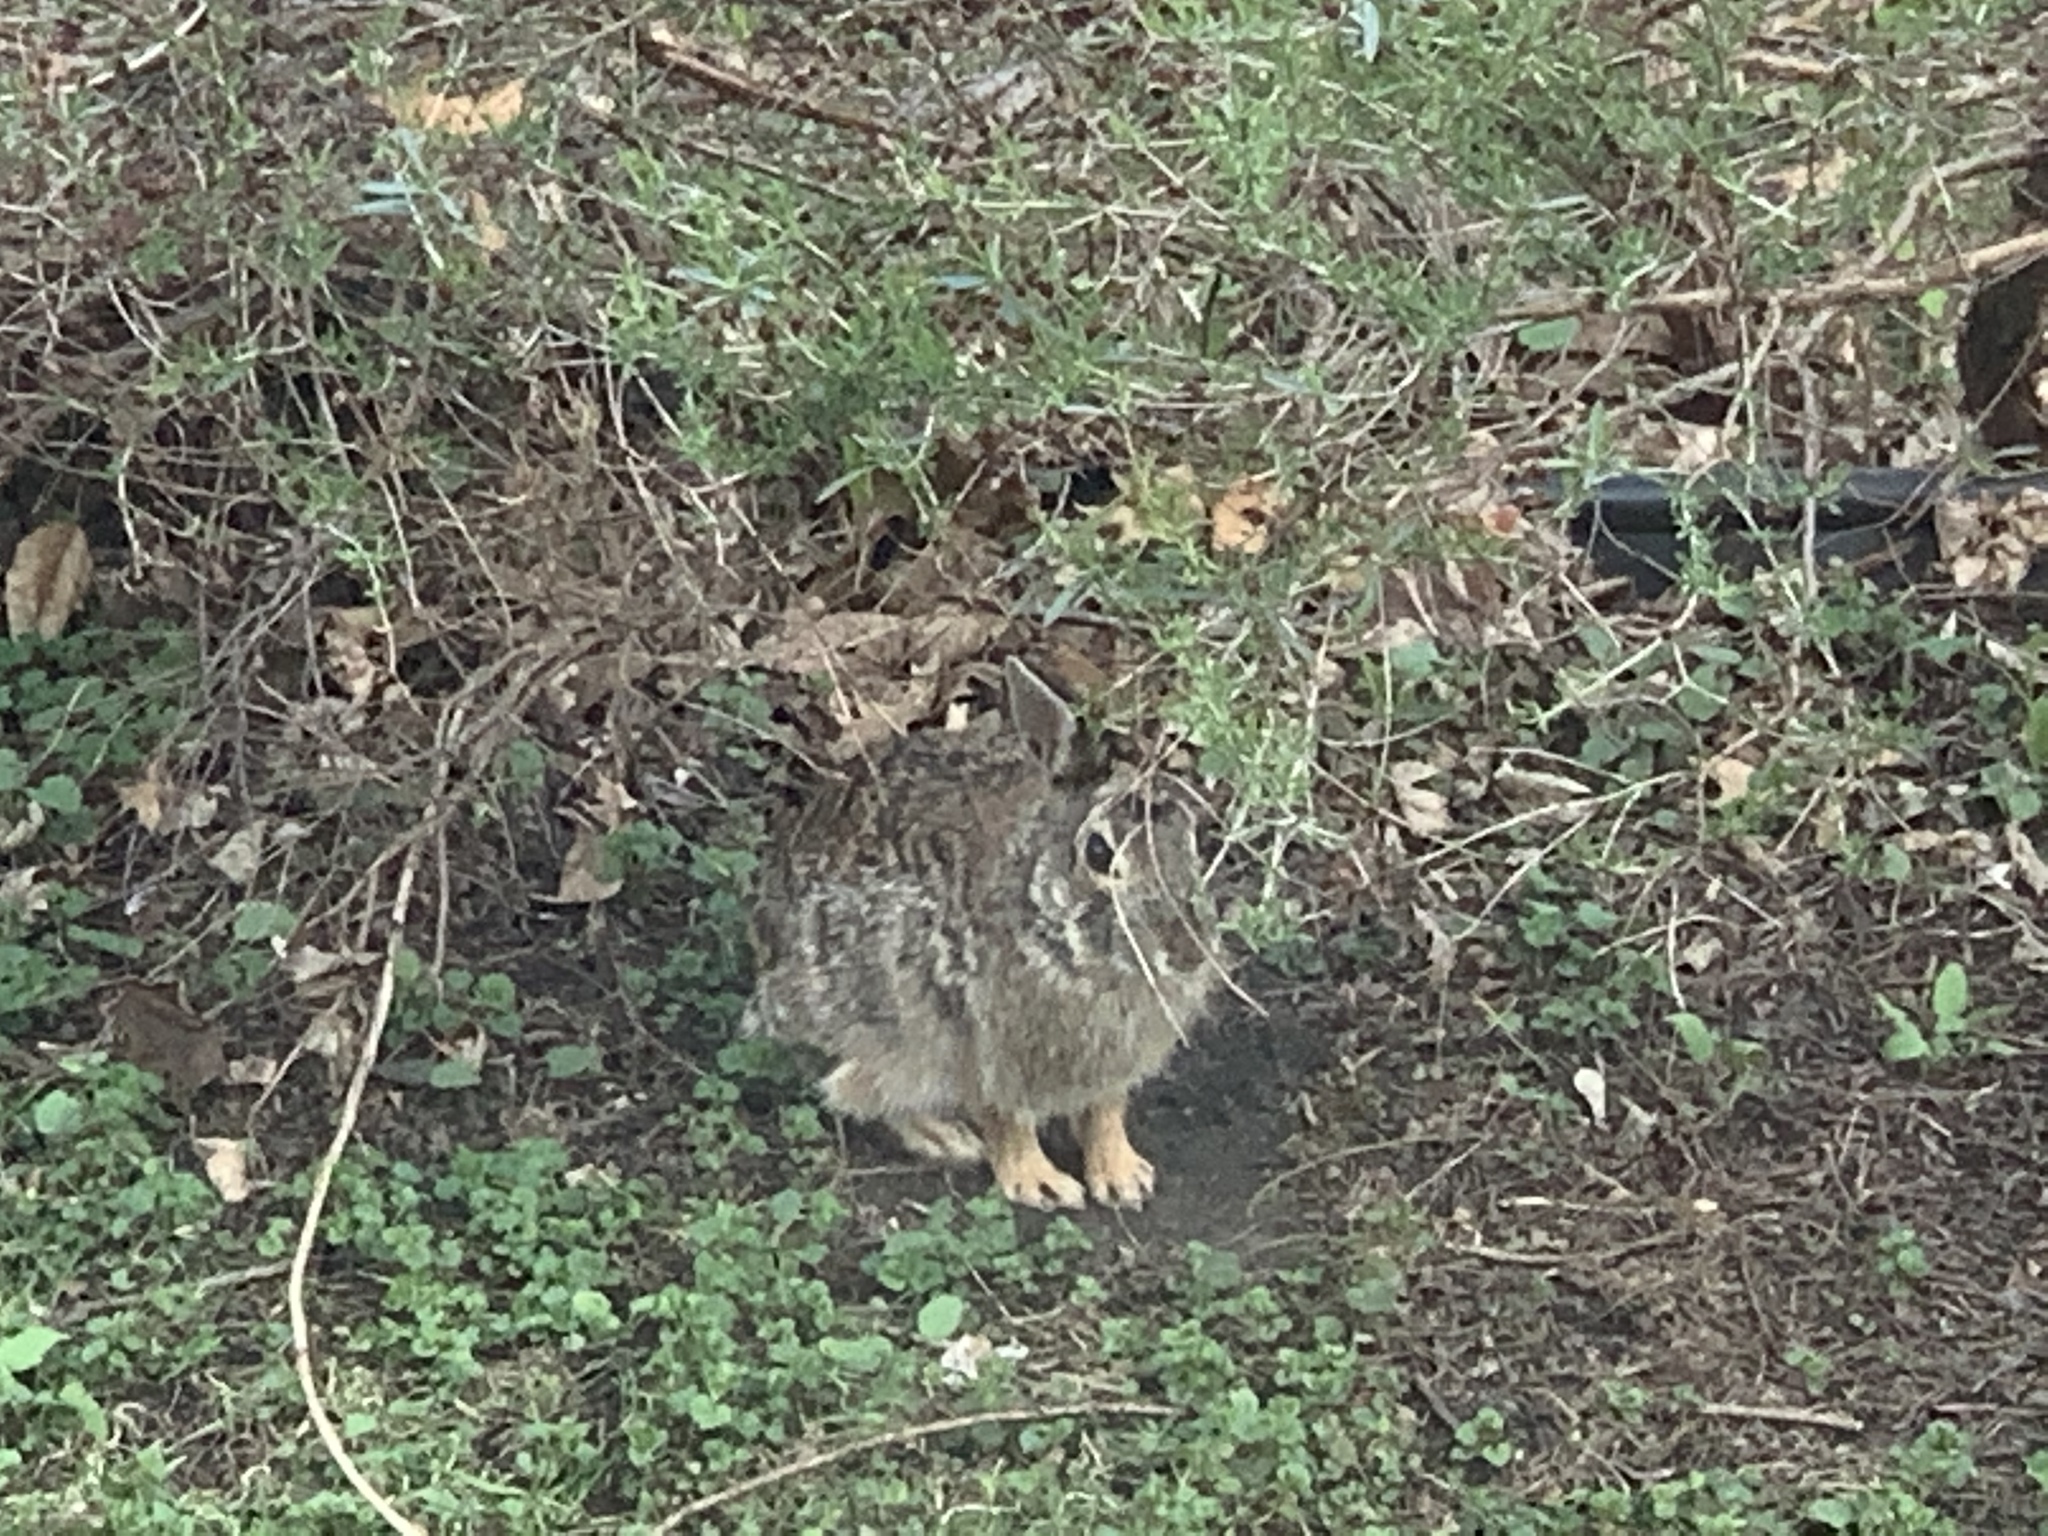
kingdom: Animalia
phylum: Chordata
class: Mammalia
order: Lagomorpha
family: Leporidae
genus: Sylvilagus
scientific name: Sylvilagus floridanus
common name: Eastern cottontail
